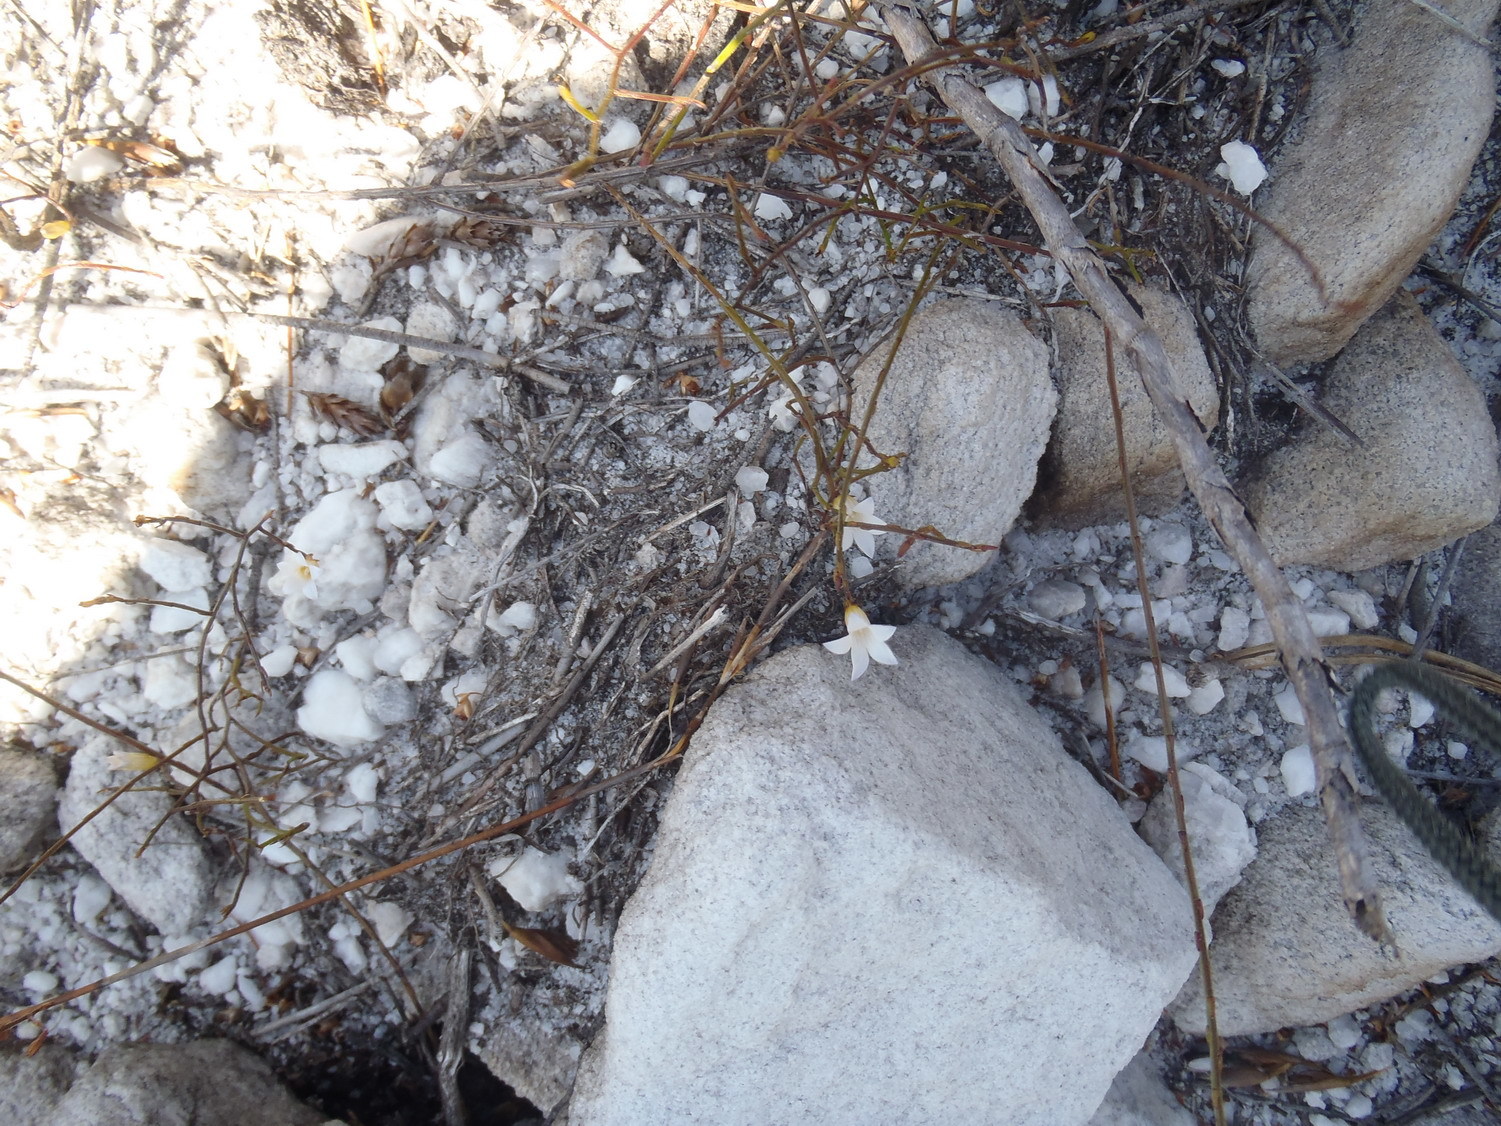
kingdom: Plantae
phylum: Tracheophyta
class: Magnoliopsida
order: Asterales
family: Campanulaceae
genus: Siphocodon
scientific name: Siphocodon debilis
